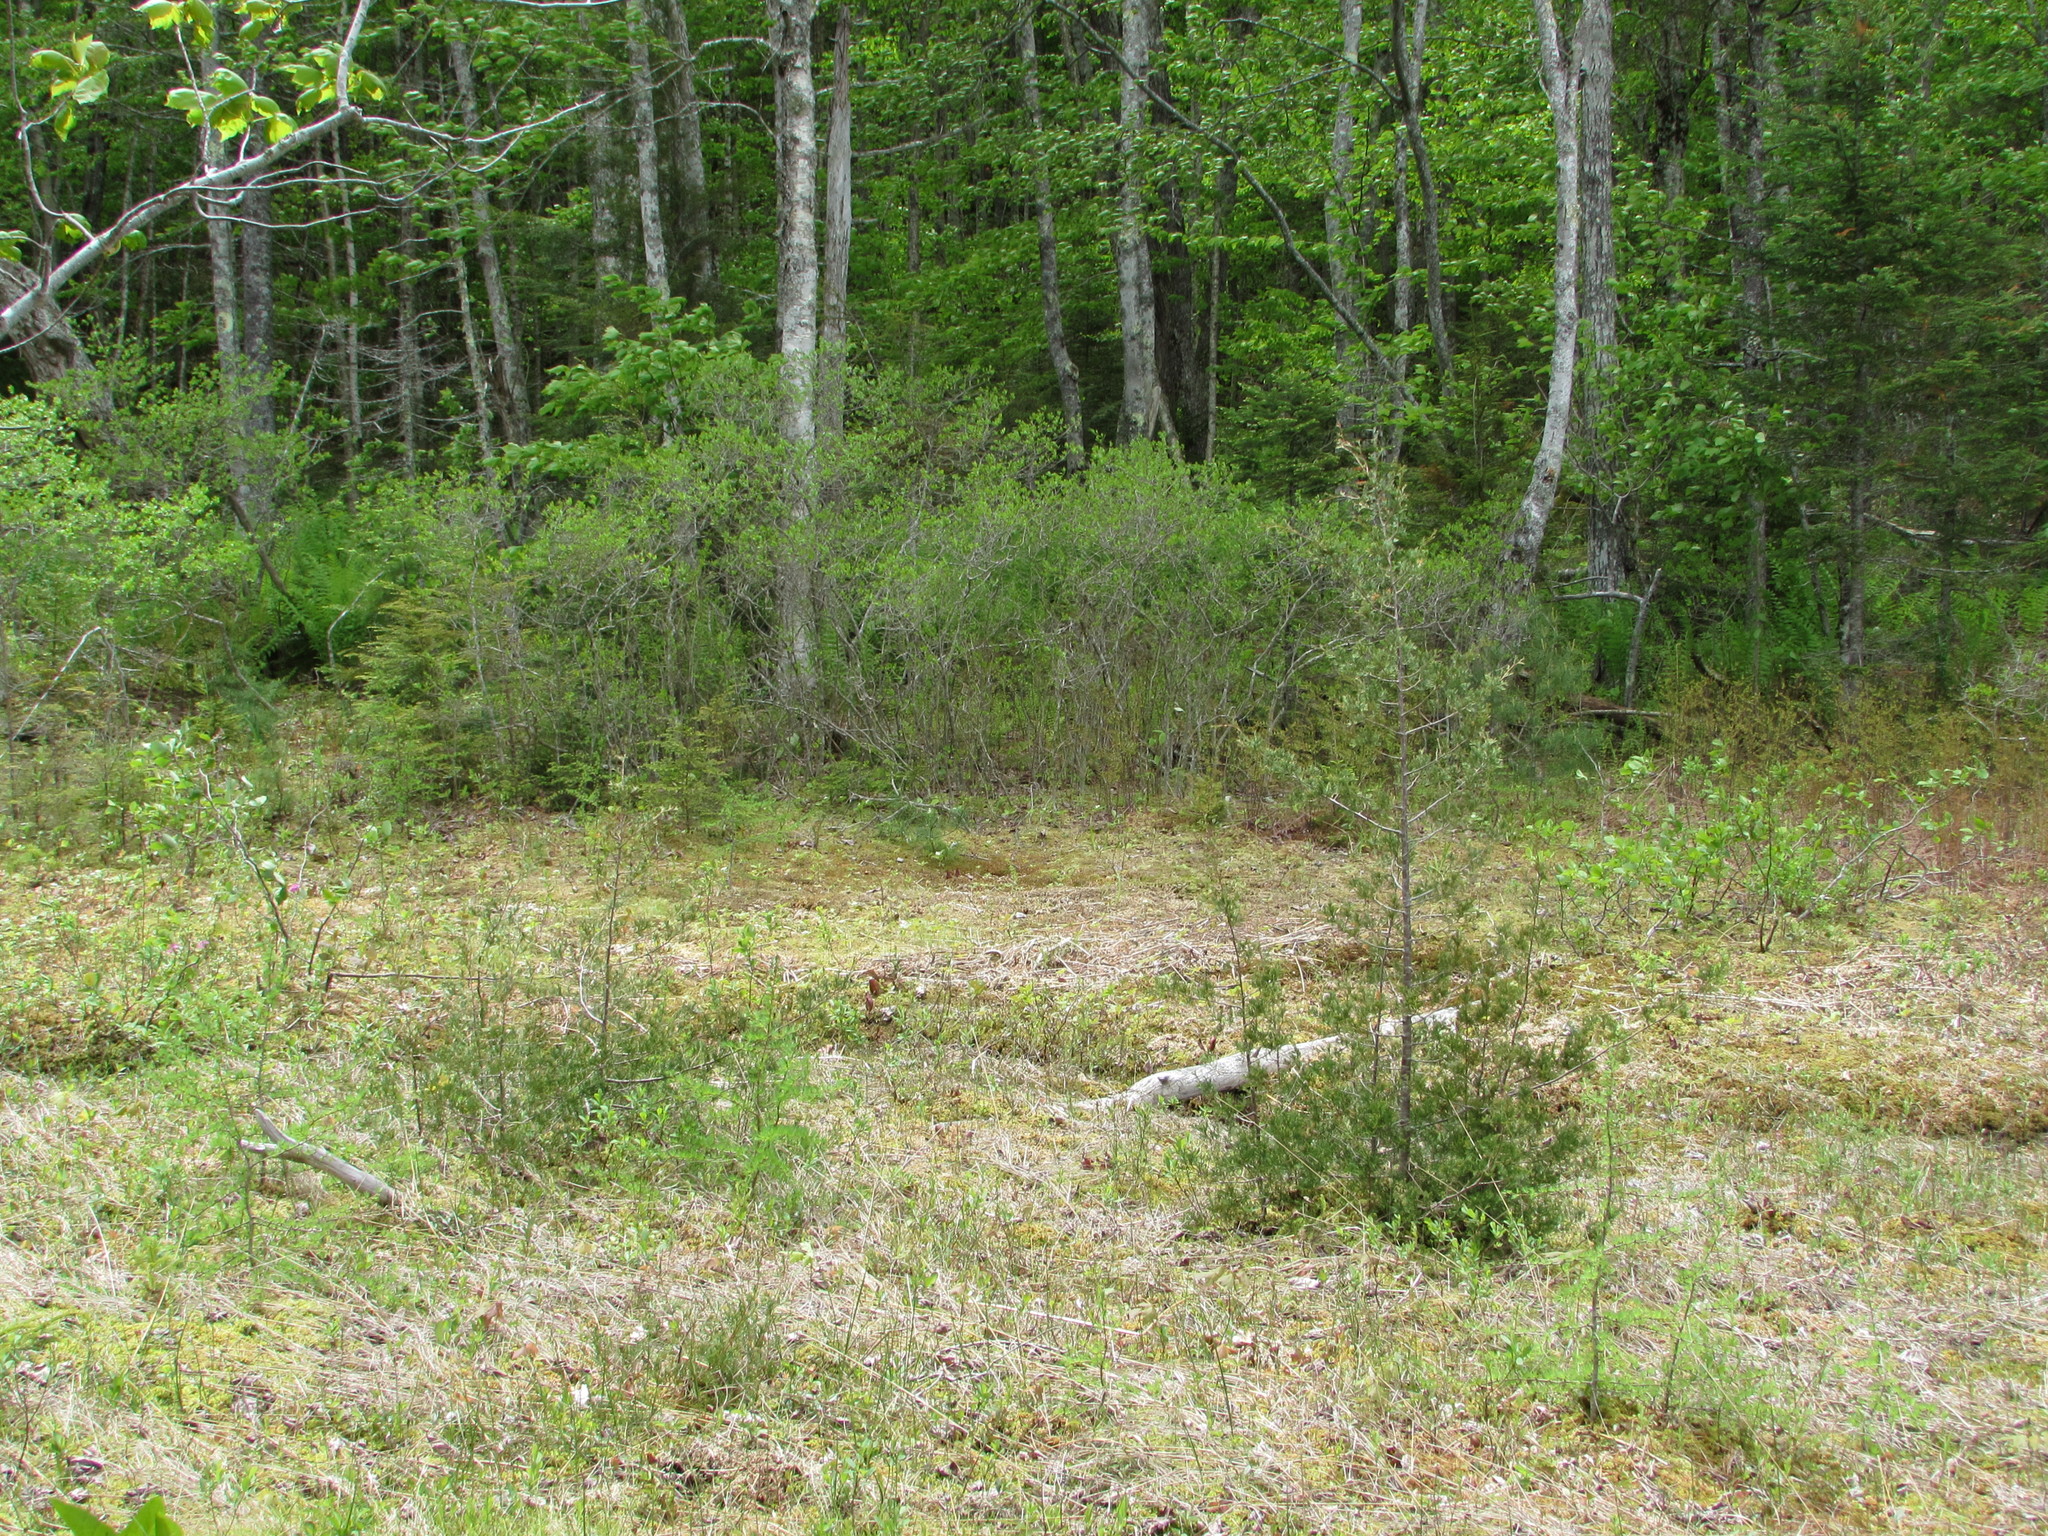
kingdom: Plantae
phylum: Tracheophyta
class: Pinopsida
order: Pinales
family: Cupressaceae
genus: Chamaecyparis
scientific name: Chamaecyparis thyoides
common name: Atlantic white cedar
